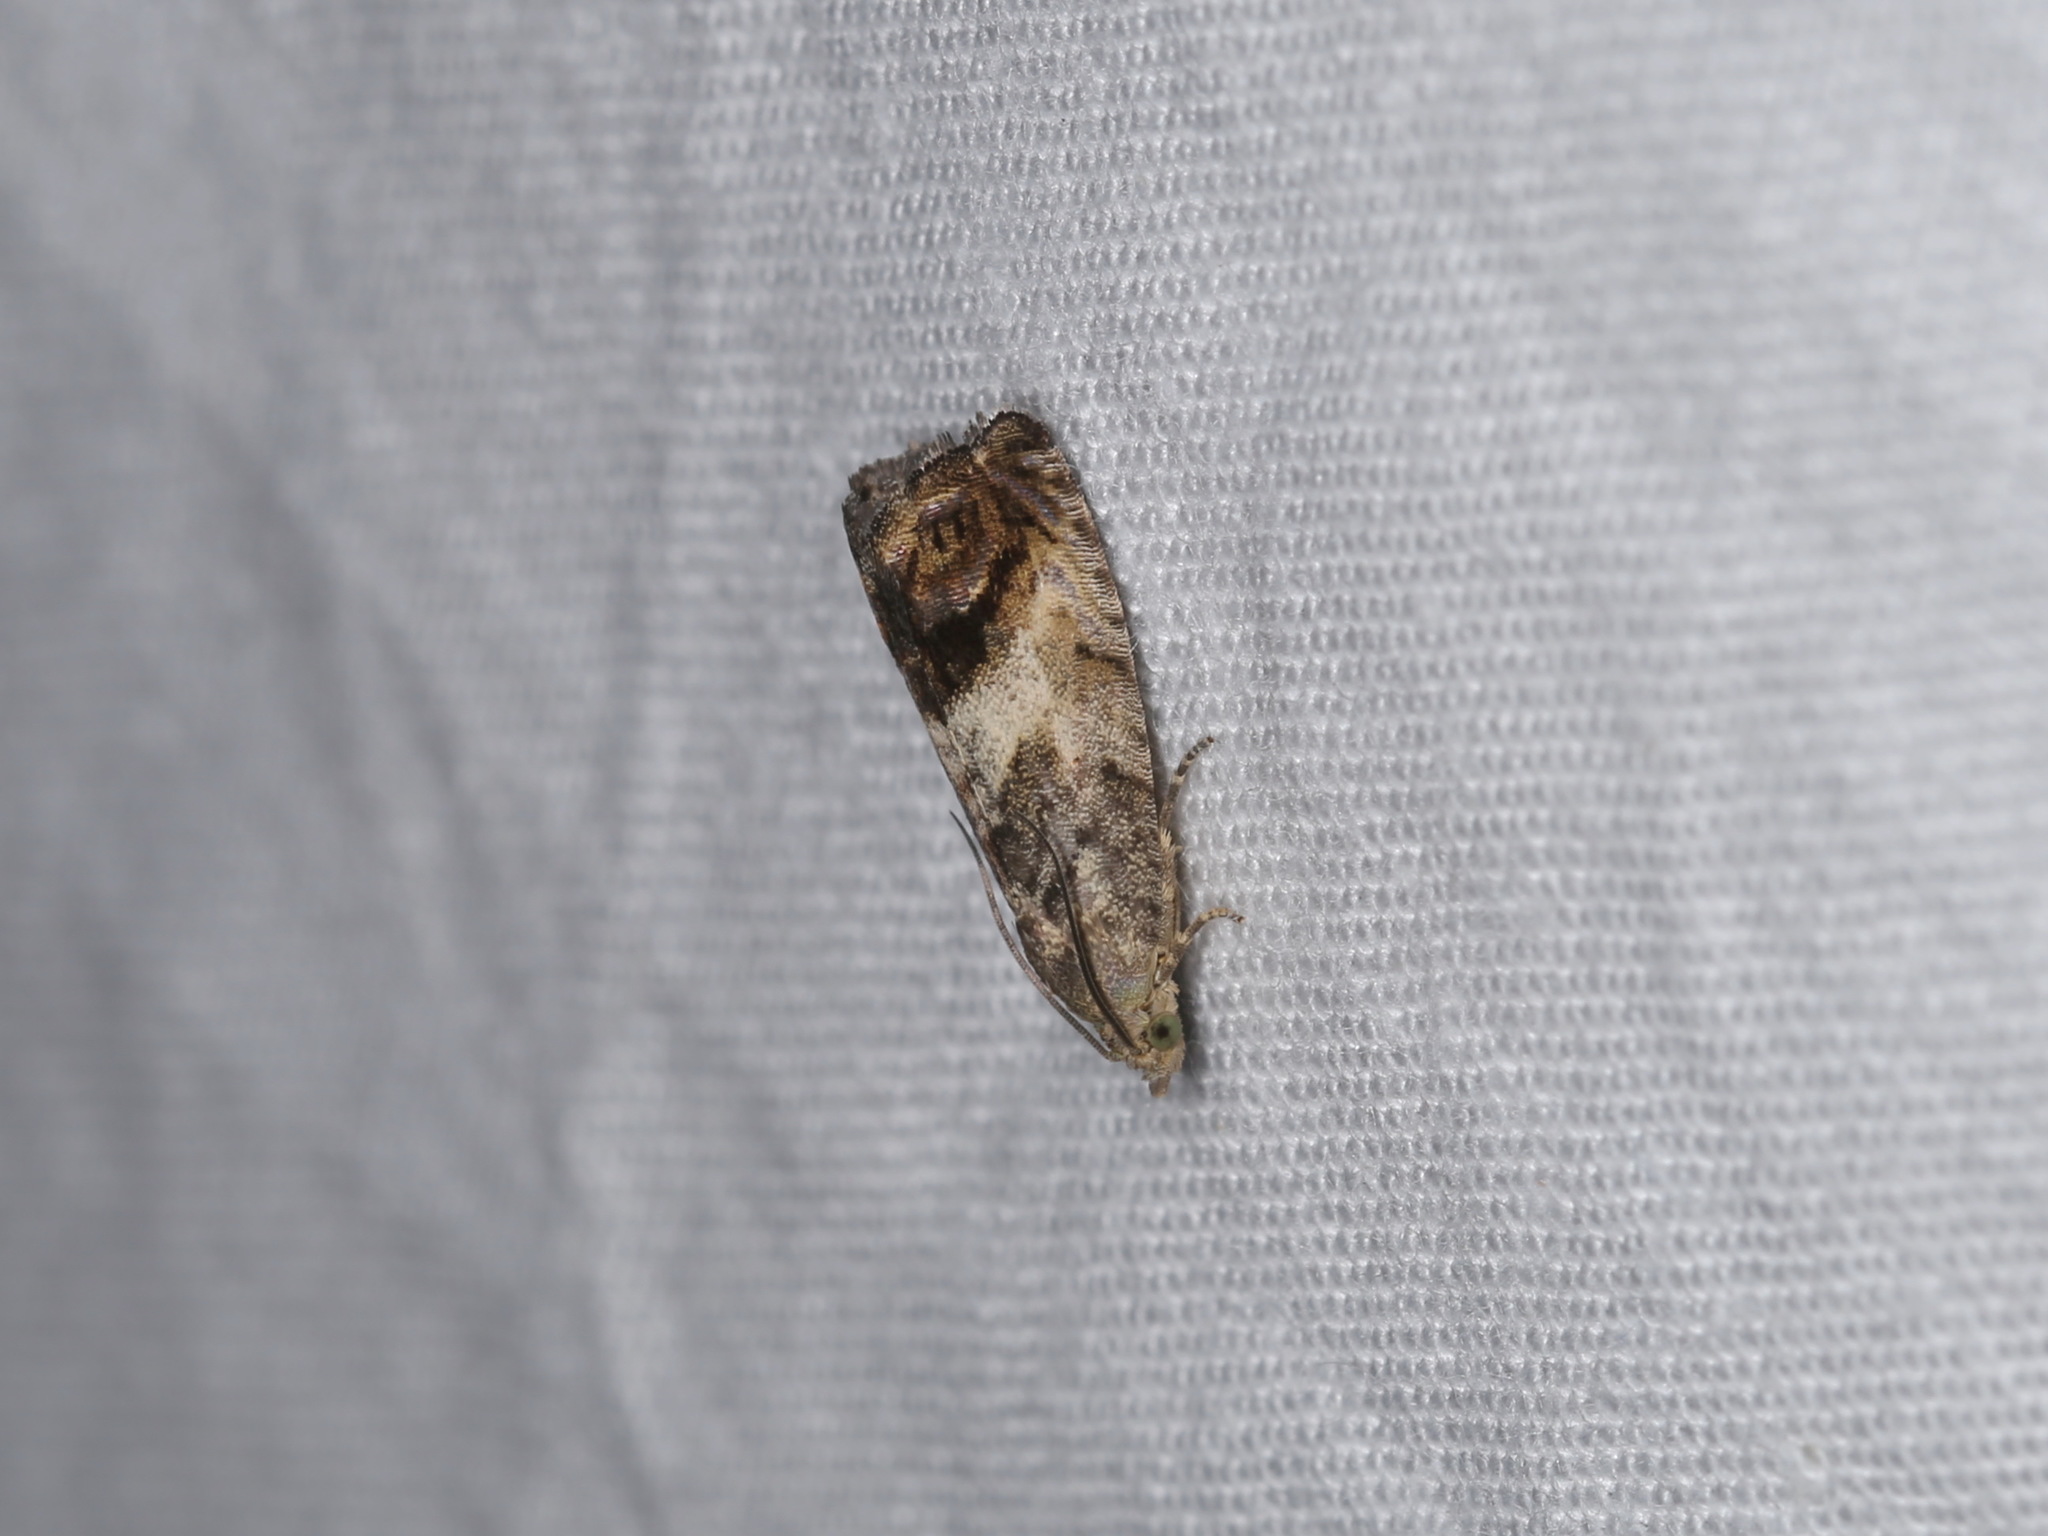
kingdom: Animalia
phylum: Arthropoda
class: Insecta
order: Lepidoptera
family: Tortricidae
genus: Cydia
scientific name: Cydia splendana
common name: De: kastanienwickler, eichenwickler es: oruga de la castaña fr: carpocapse des châtaignes it: cidia o tortrice tardiva delle castagne pt: bichado das castanhas gb: acorn moth, chestnut fruit tortrix
